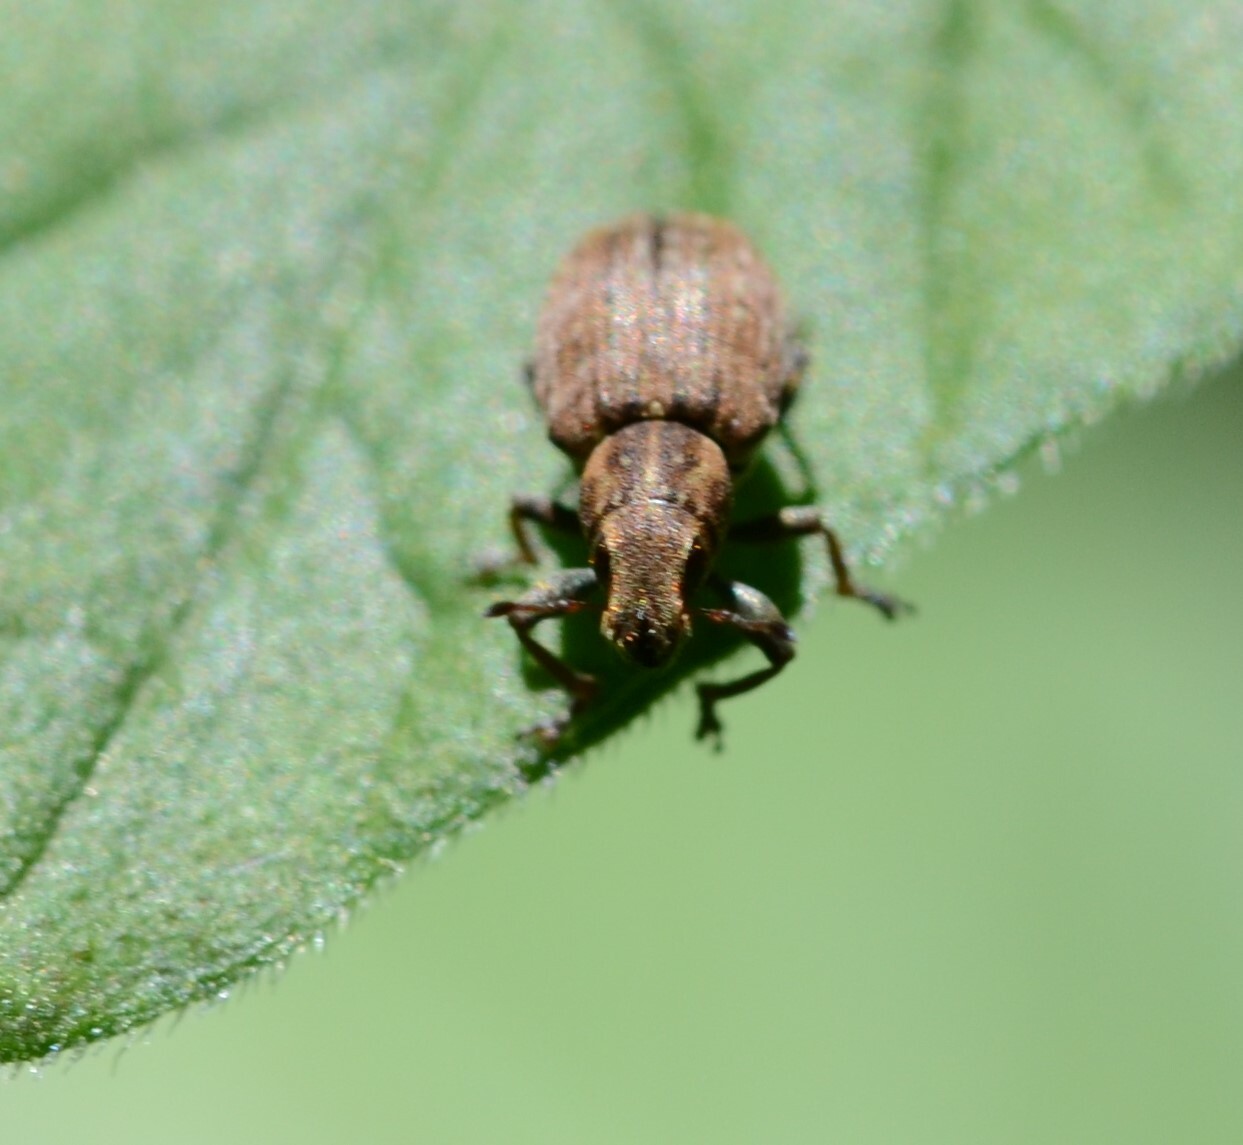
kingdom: Animalia
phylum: Arthropoda
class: Insecta
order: Coleoptera
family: Curculionidae
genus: Sitona
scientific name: Sitona obsoletus
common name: Weevil
